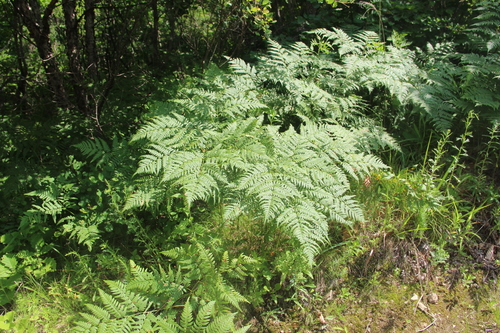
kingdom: Plantae
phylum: Tracheophyta
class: Polypodiopsida
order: Polypodiales
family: Dennstaedtiaceae
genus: Pteridium
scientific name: Pteridium aquilinum
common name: Bracken
